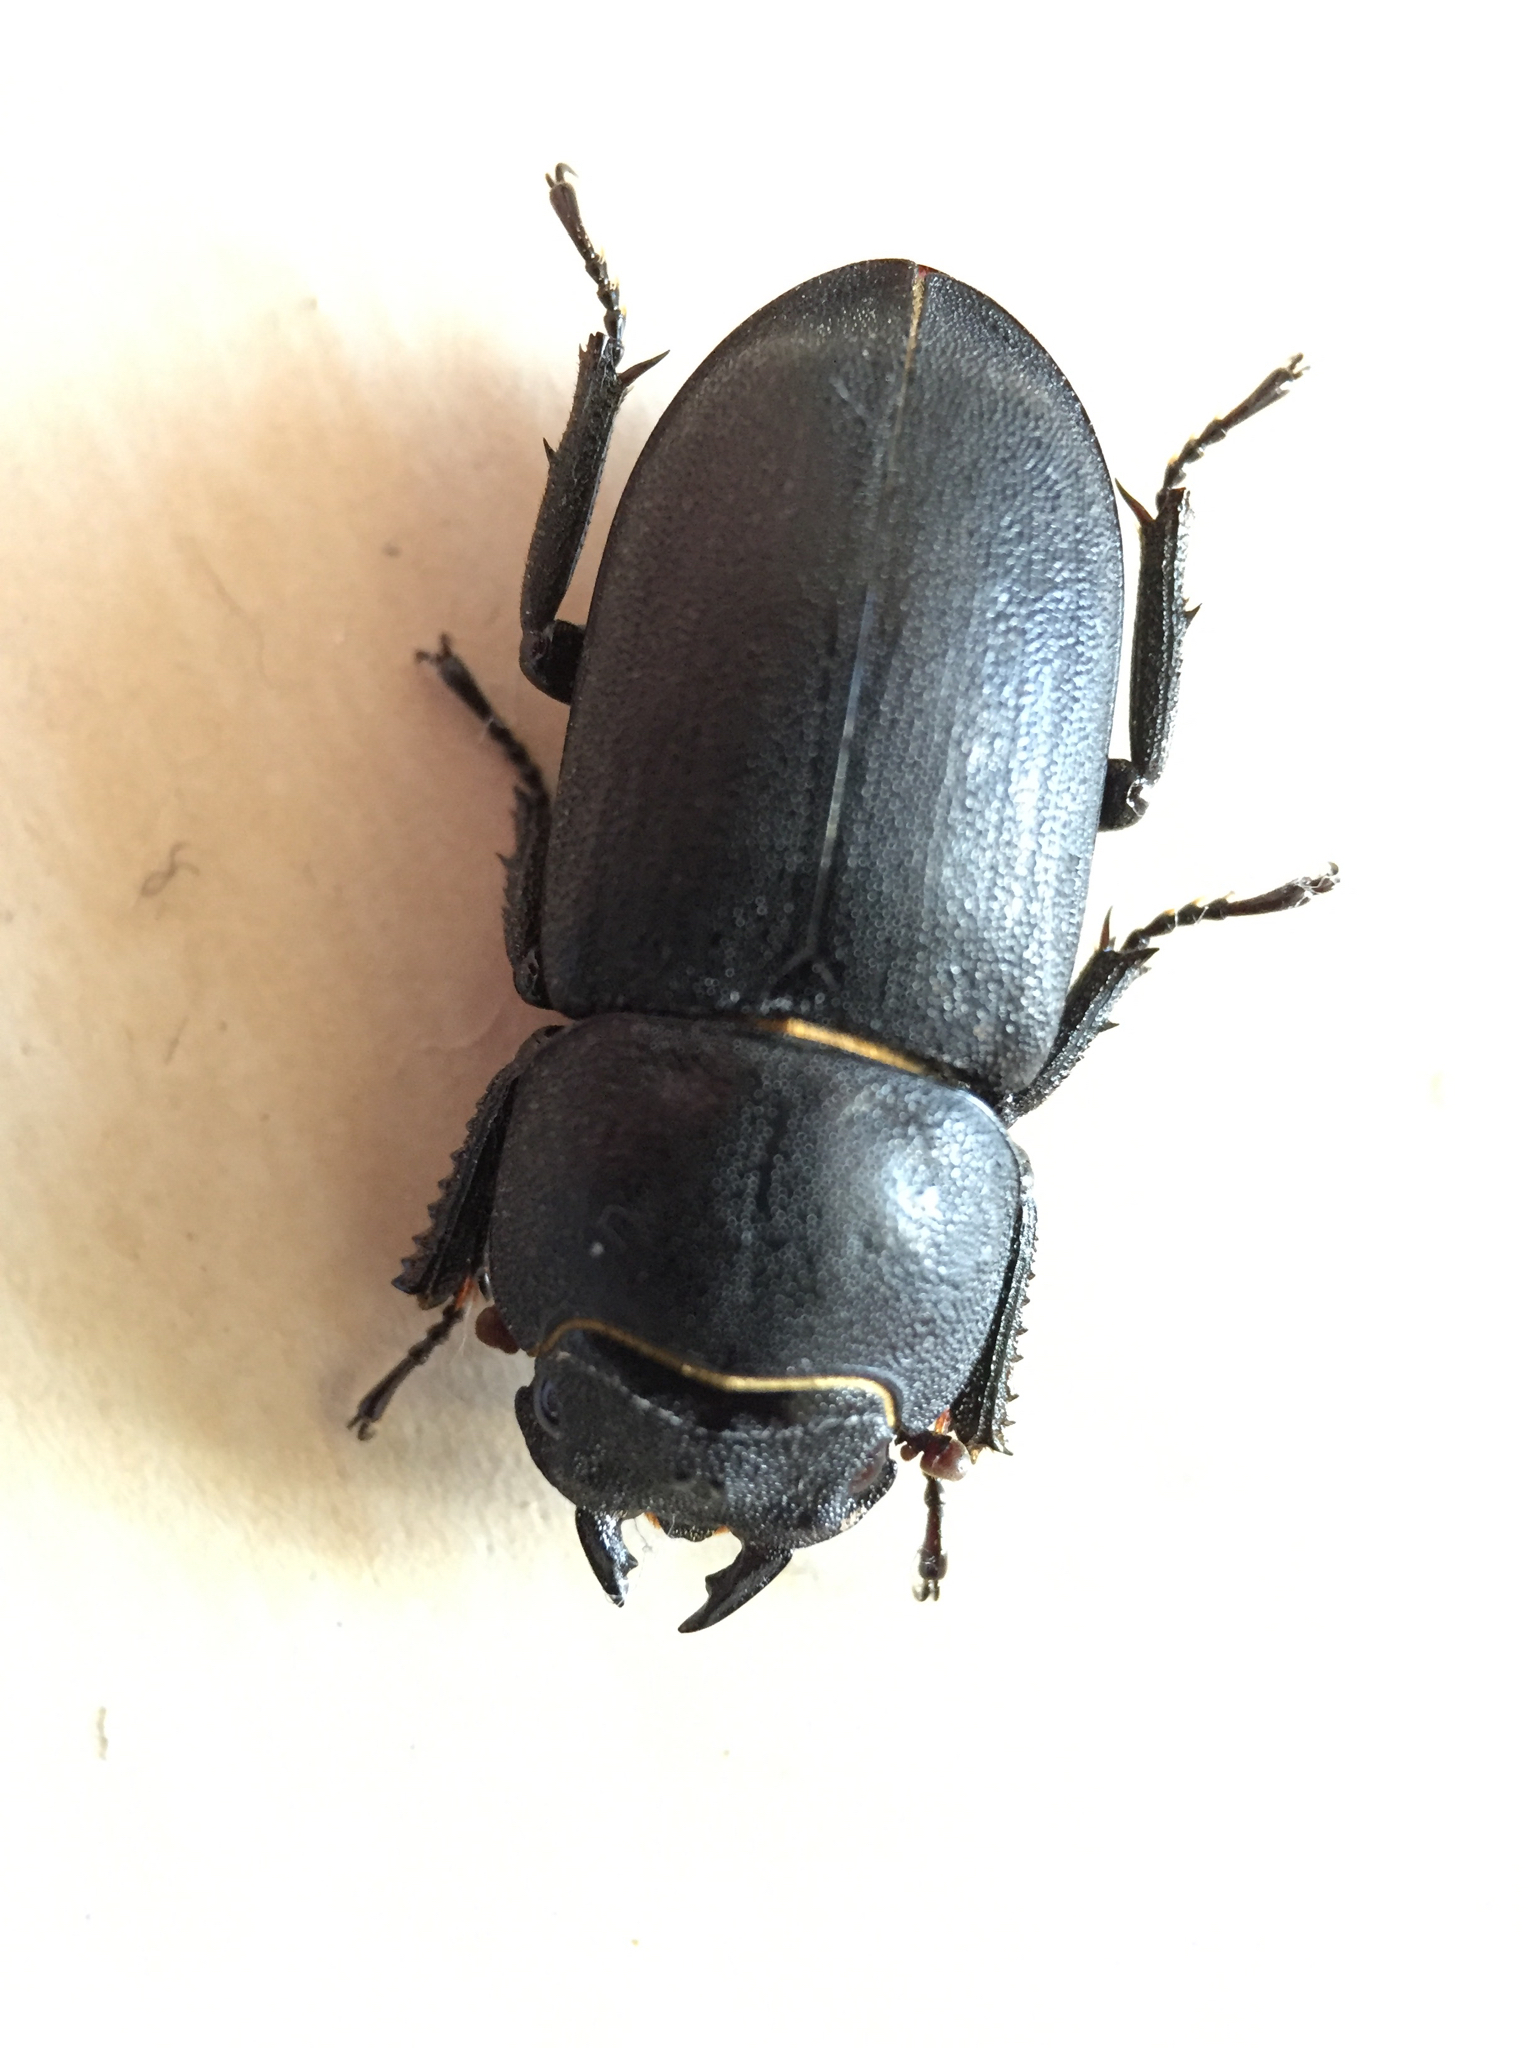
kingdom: Animalia
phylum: Arthropoda
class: Insecta
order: Coleoptera
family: Lucanidae
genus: Dorcus
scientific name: Dorcus parallelipipedus
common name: Lesser stag beetle
